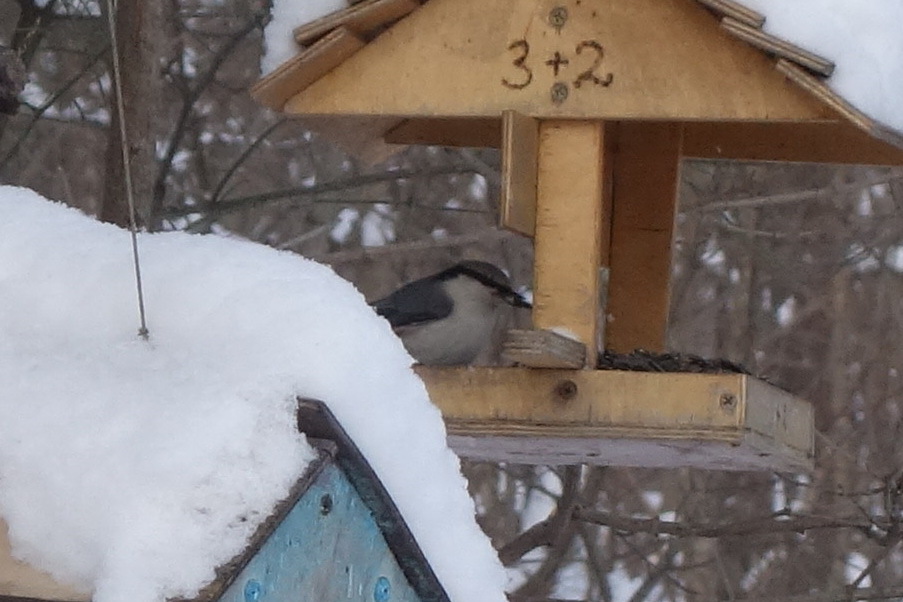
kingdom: Animalia
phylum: Chordata
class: Aves
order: Passeriformes
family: Sittidae
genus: Sitta
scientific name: Sitta europaea
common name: Eurasian nuthatch
